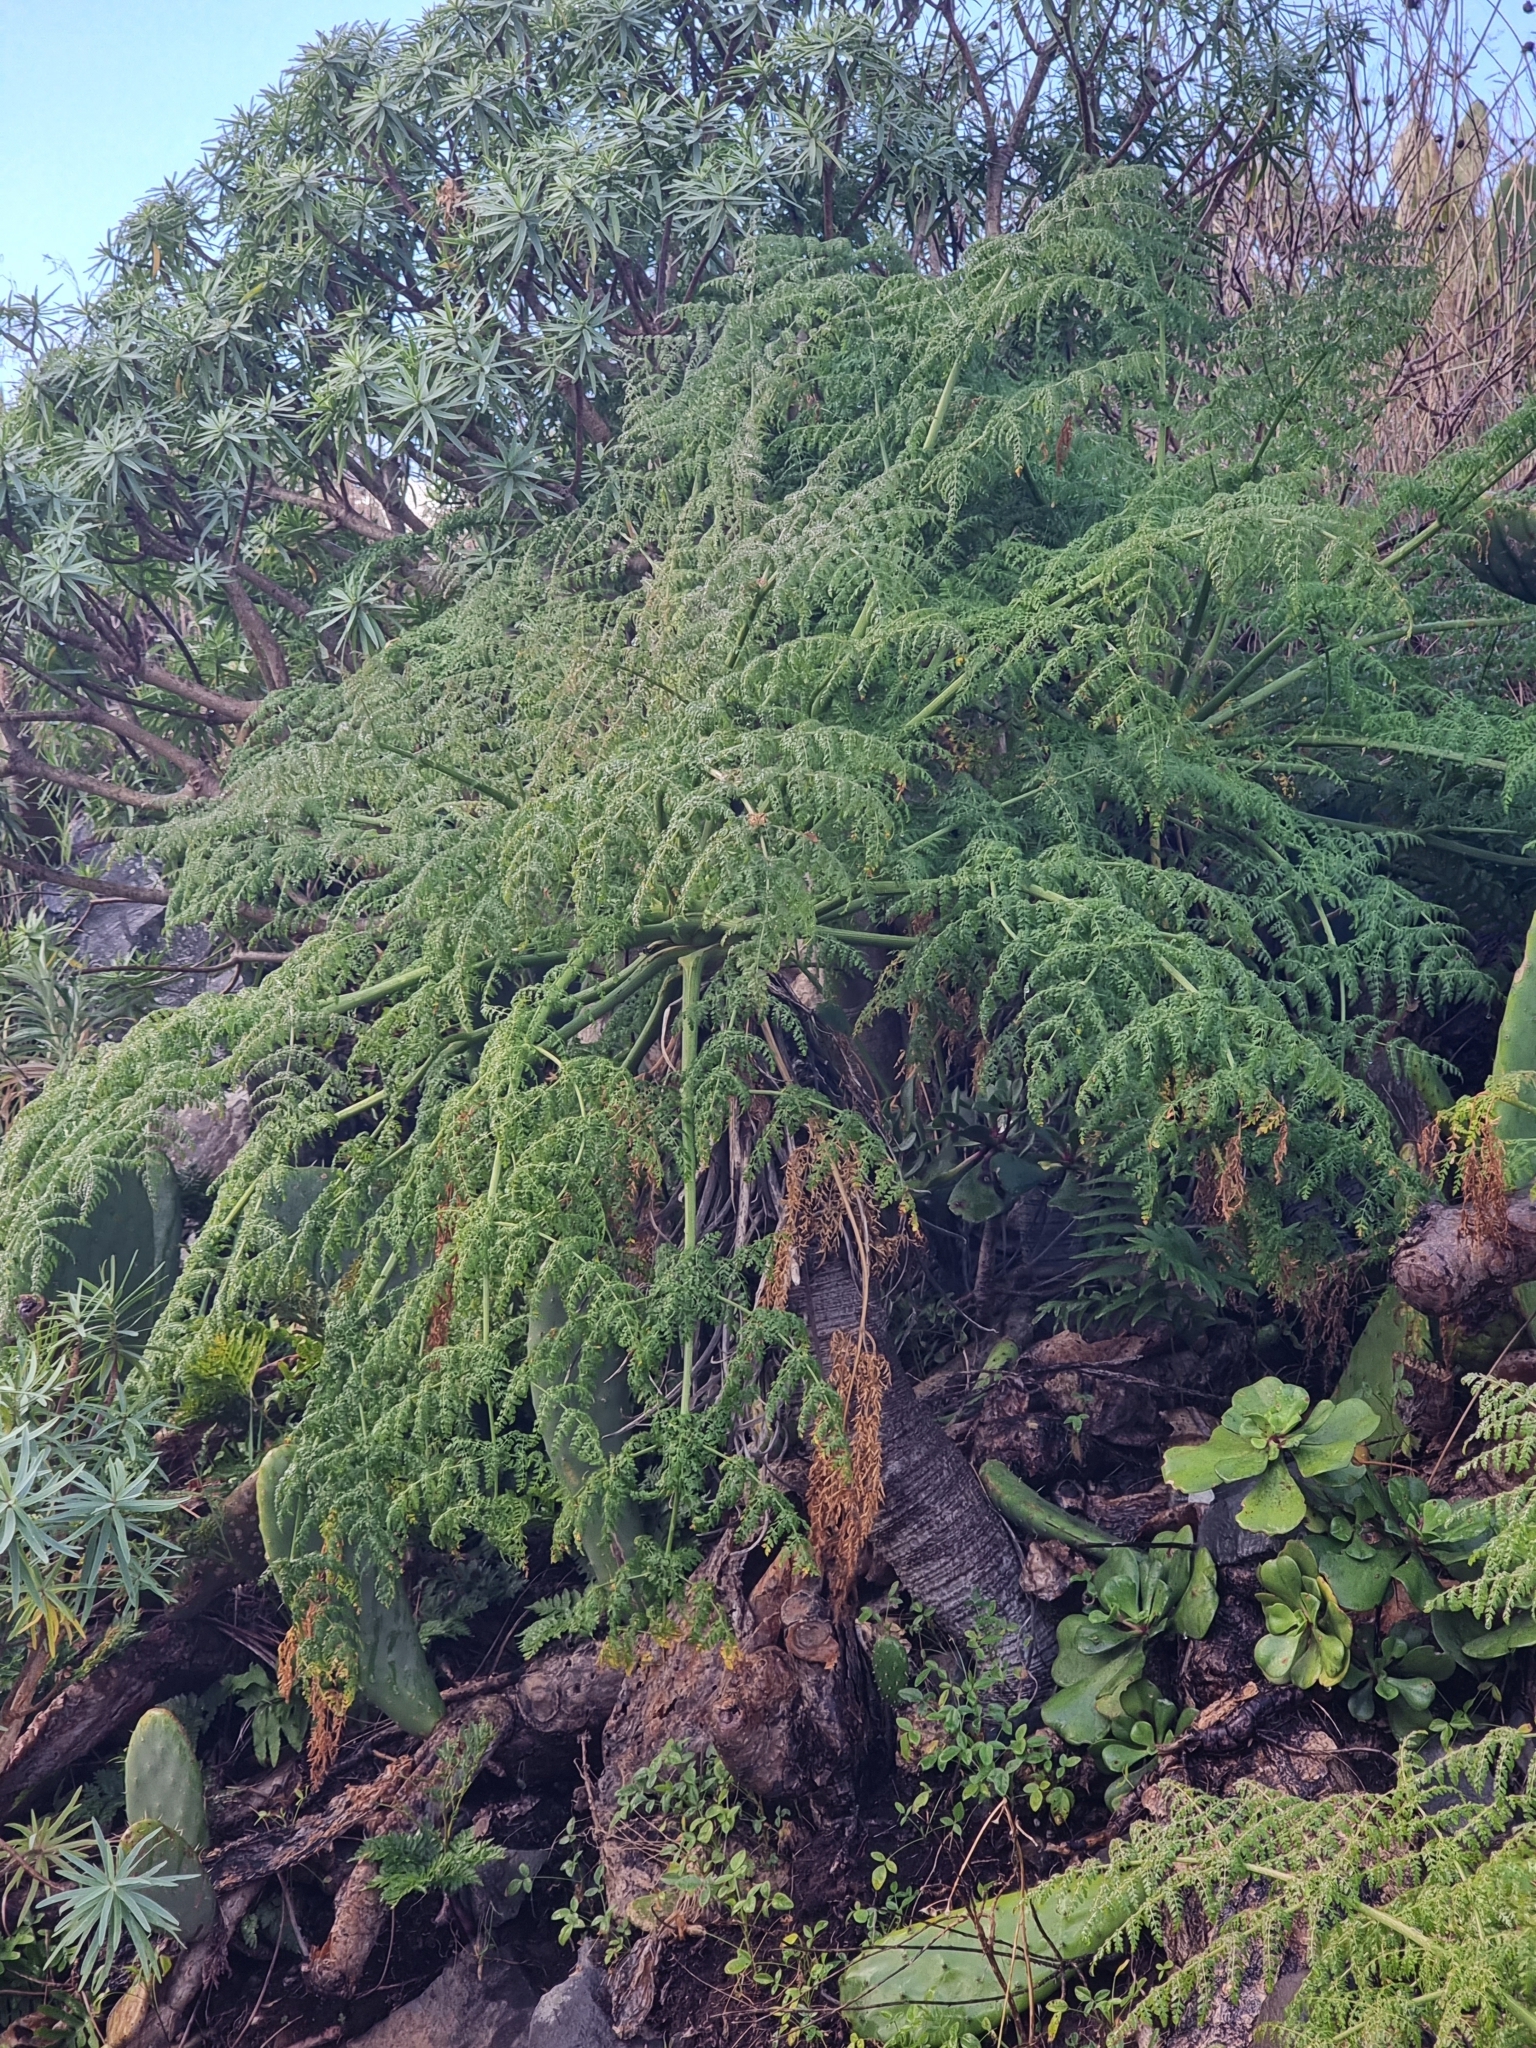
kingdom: Plantae
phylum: Tracheophyta
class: Magnoliopsida
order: Apiales
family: Apiaceae
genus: Daucus
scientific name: Daucus edulis
